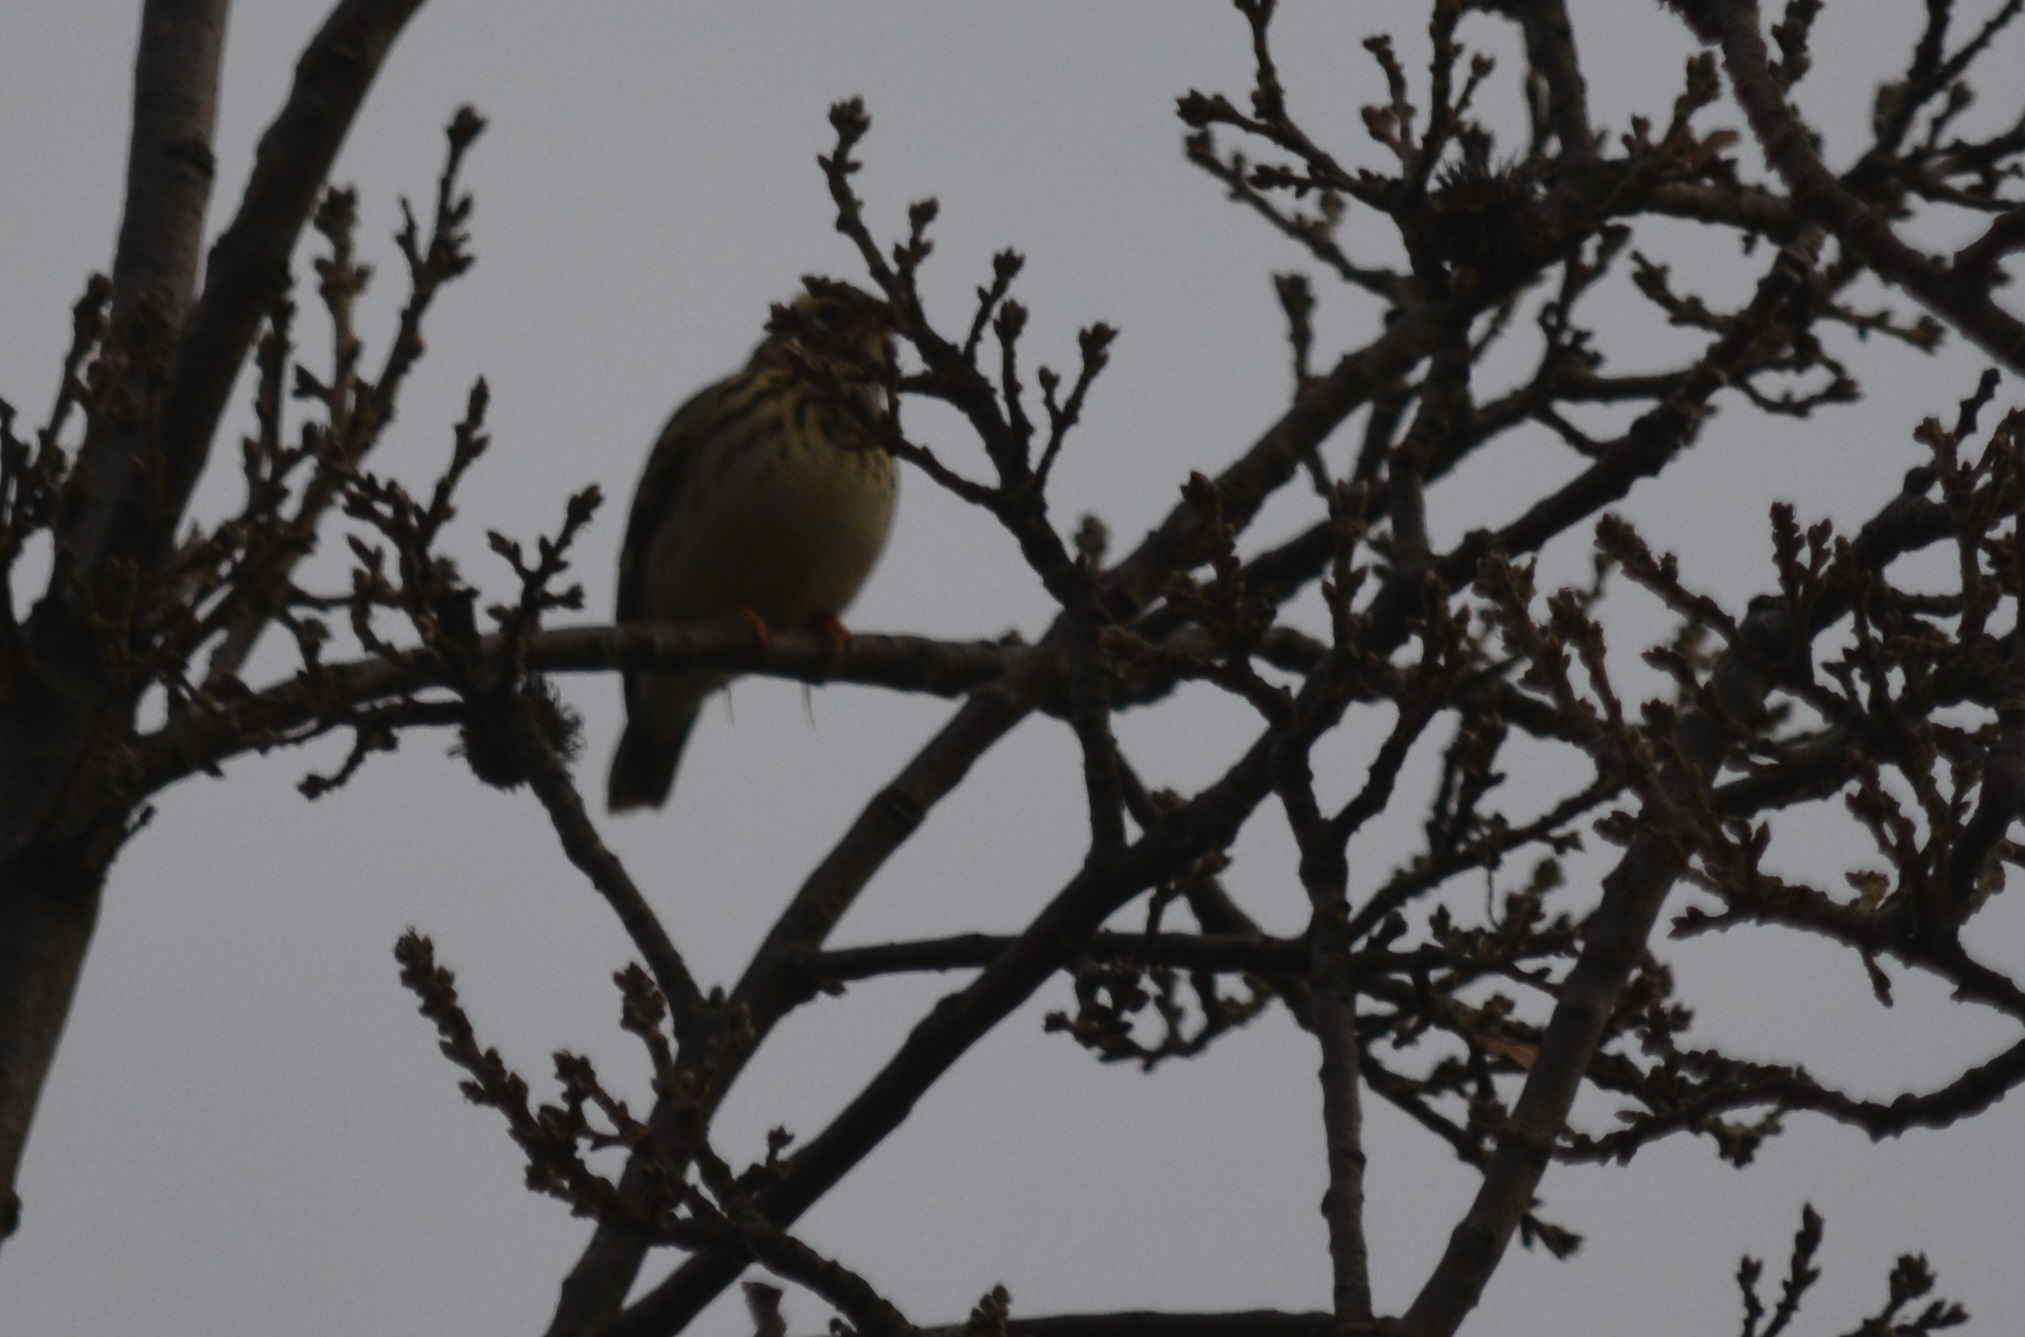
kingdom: Animalia
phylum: Chordata
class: Aves
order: Passeriformes
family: Alaudidae
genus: Lullula
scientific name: Lullula arborea
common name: Woodlark
